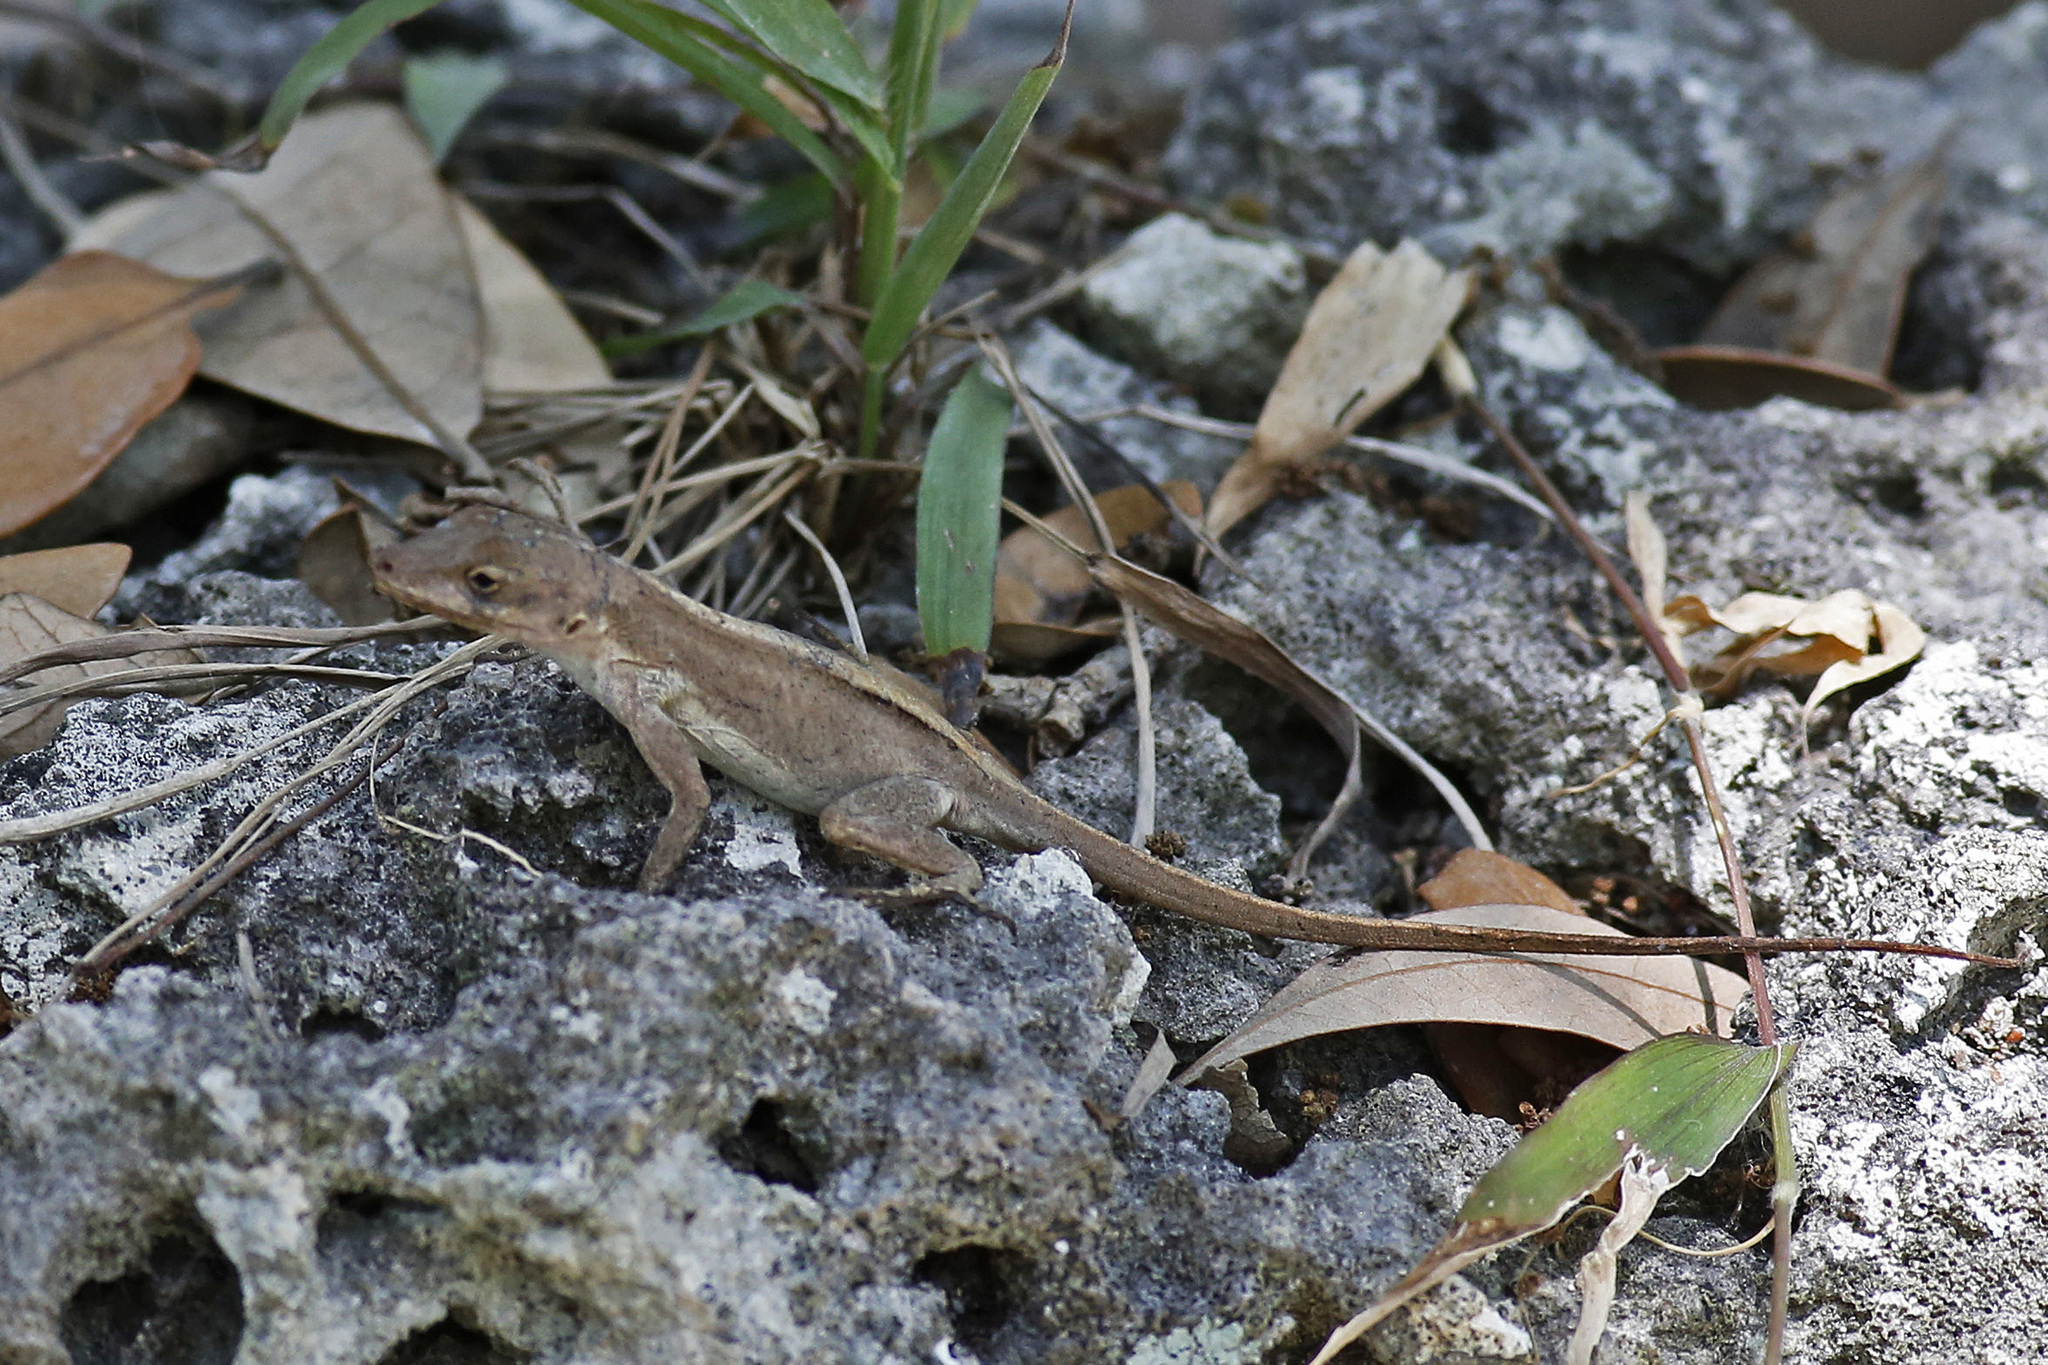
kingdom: Animalia
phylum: Chordata
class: Squamata
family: Dactyloidae
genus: Anolis
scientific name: Anolis cristatellus
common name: Crested anole
